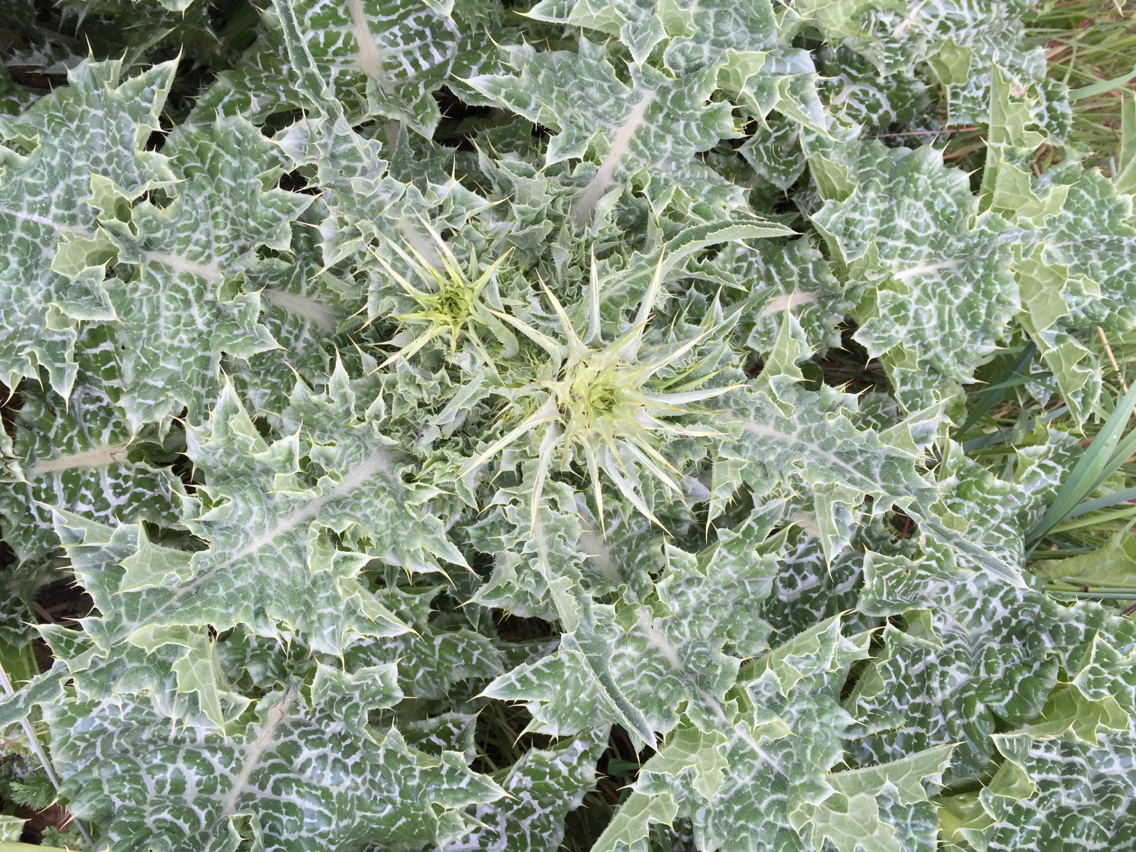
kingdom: Plantae
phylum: Tracheophyta
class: Magnoliopsida
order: Asterales
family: Asteraceae
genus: Silybum
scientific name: Silybum marianum
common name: Milk thistle
